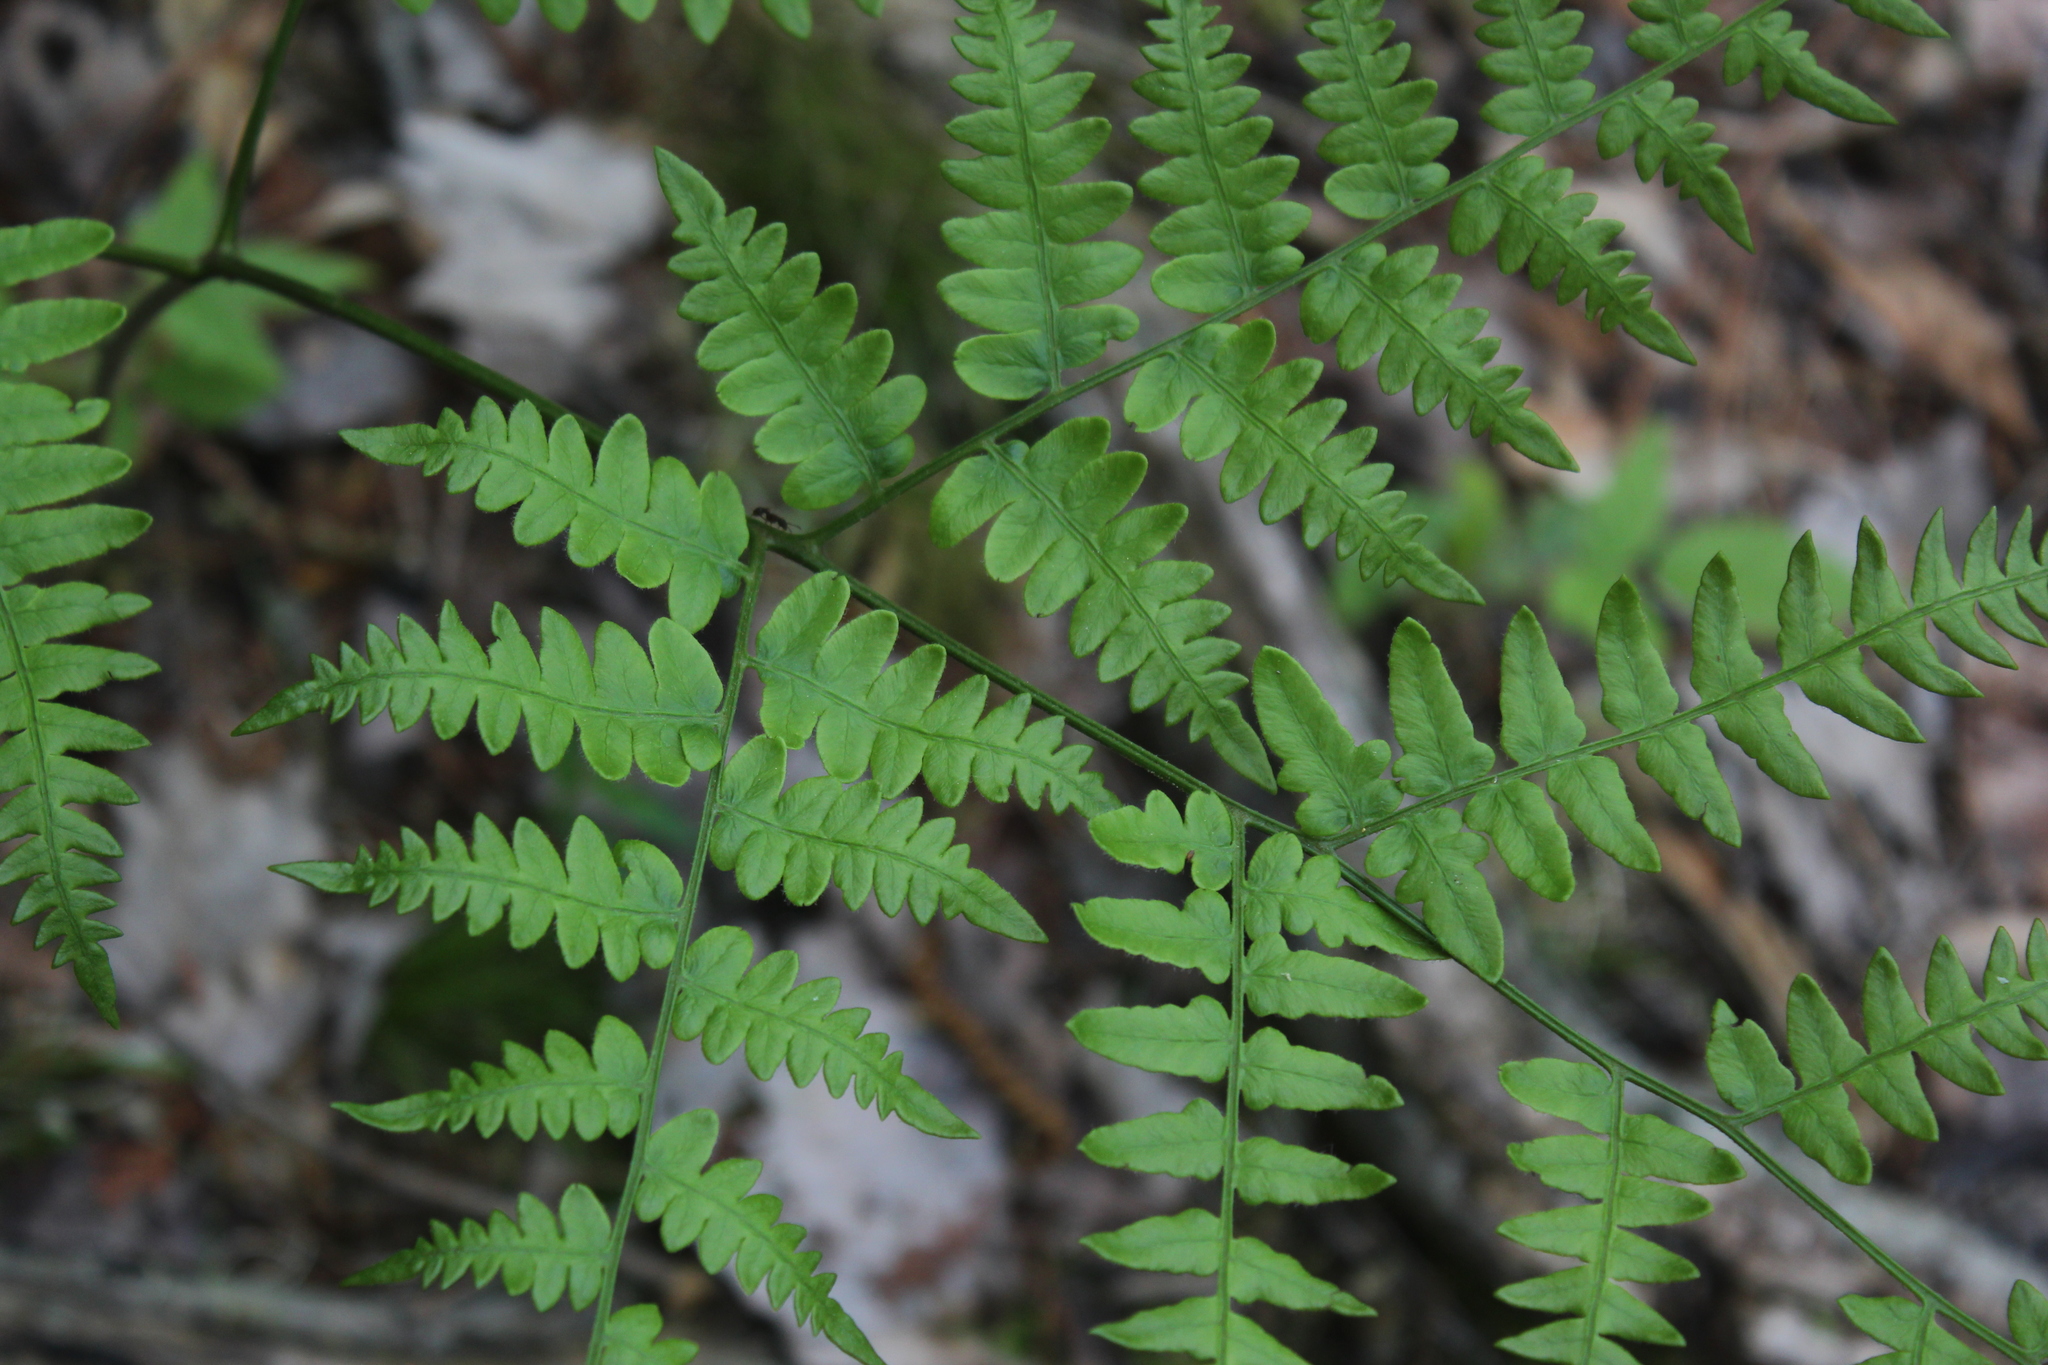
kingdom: Plantae
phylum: Tracheophyta
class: Polypodiopsida
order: Polypodiales
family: Dennstaedtiaceae
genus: Pteridium
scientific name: Pteridium aquilinum
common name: Bracken
